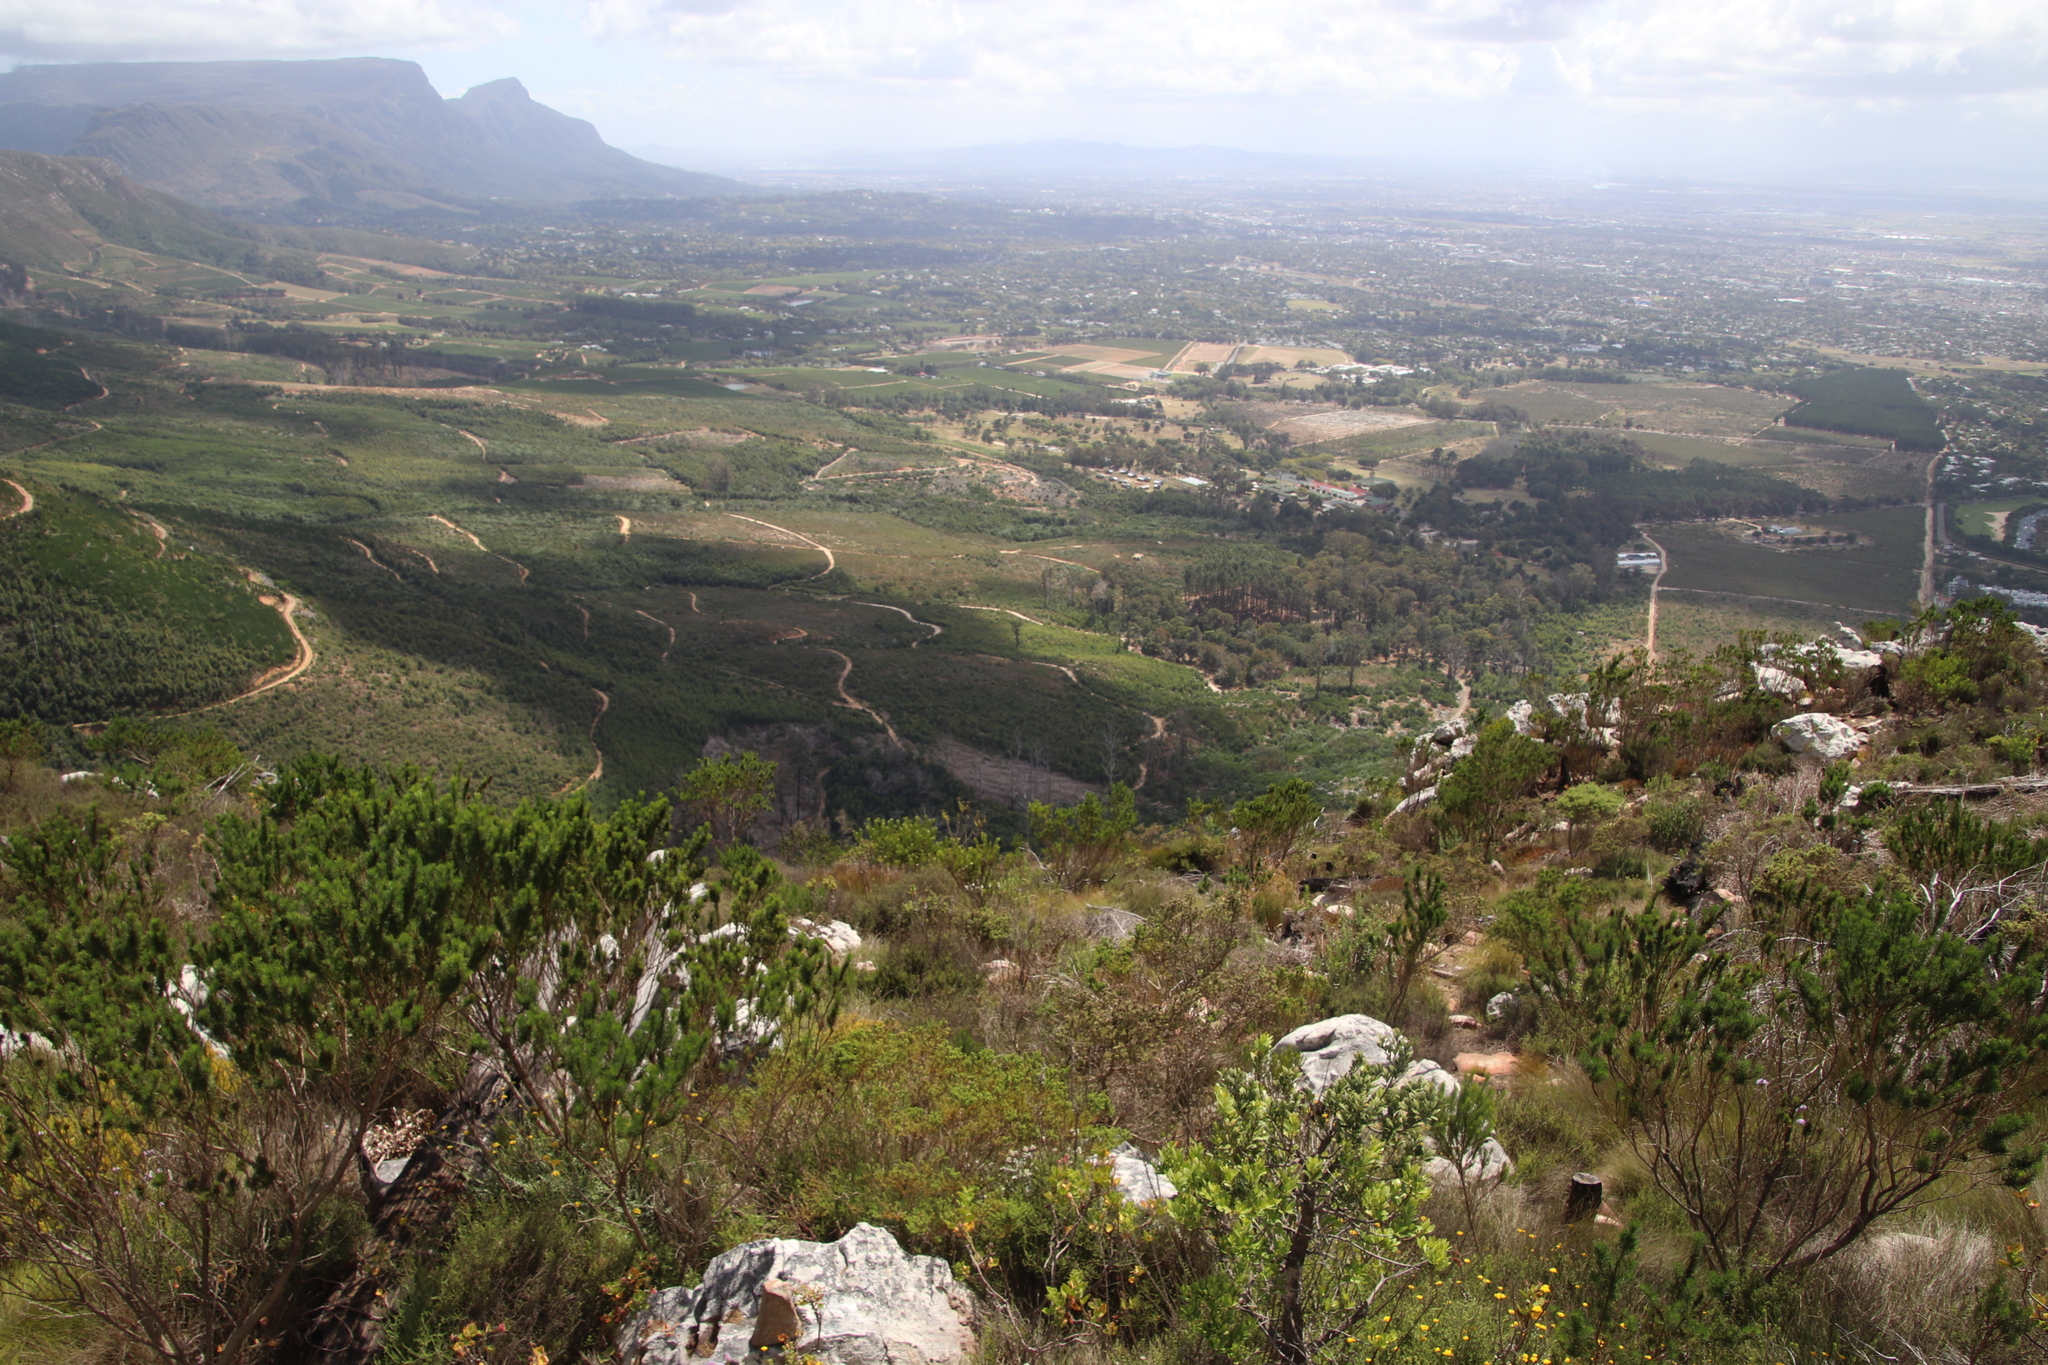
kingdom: Plantae
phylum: Tracheophyta
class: Magnoliopsida
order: Fabales
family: Fabaceae
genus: Psoralea
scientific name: Psoralea pinnata
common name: African scurfpea
